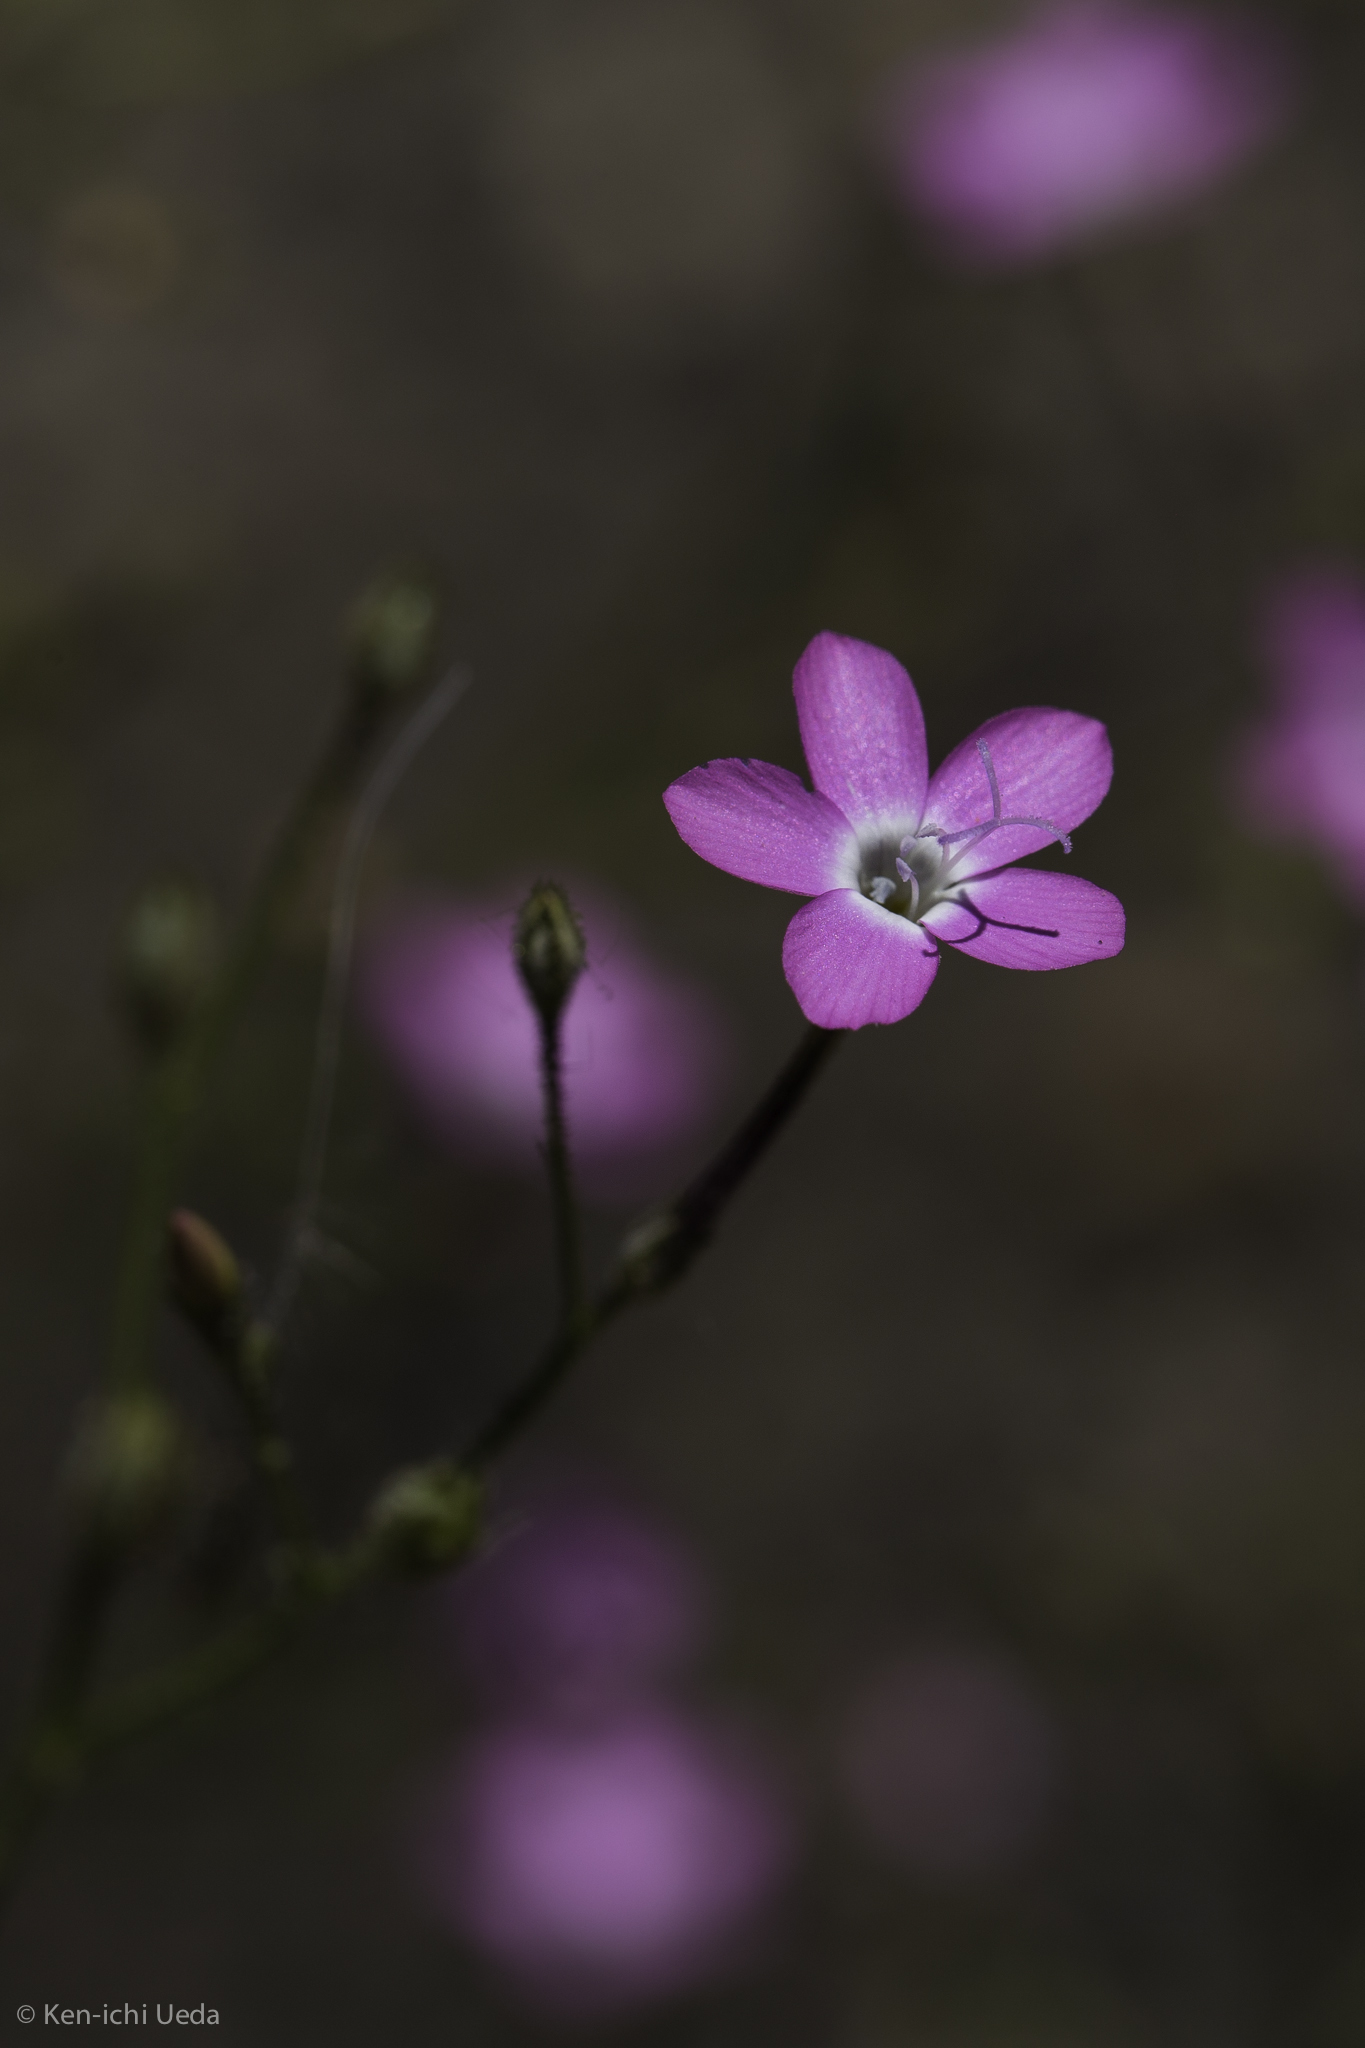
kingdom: Plantae
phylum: Tracheophyta
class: Magnoliopsida
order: Ericales
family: Polemoniaceae
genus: Gilia
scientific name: Gilia leptantha
